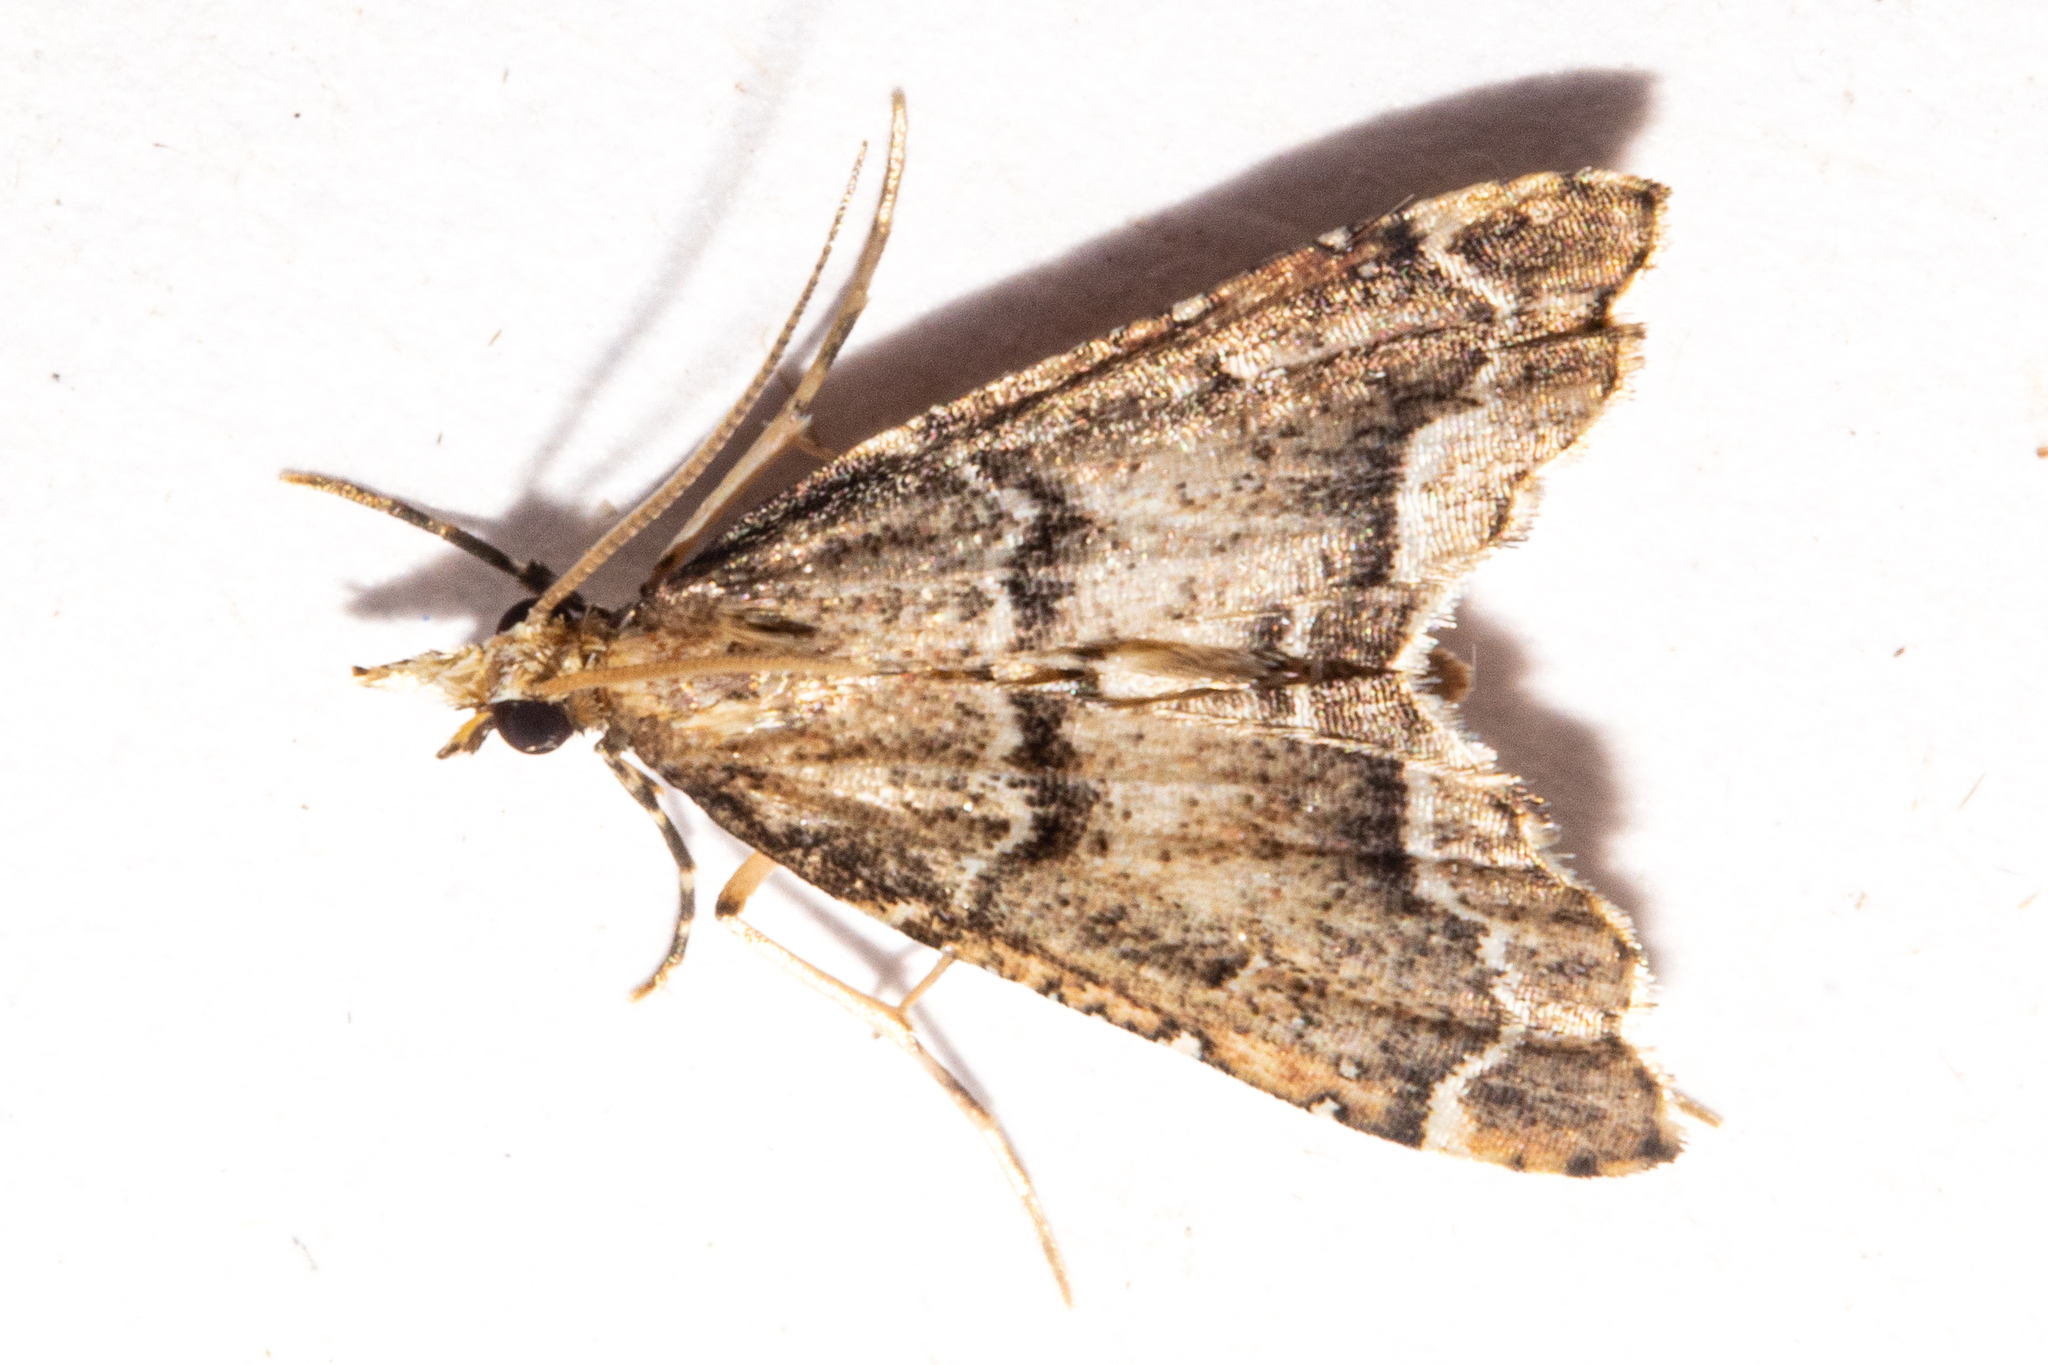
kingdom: Animalia
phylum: Arthropoda
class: Insecta
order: Lepidoptera
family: Crambidae
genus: Diplopseustis
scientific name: Diplopseustis perieresalis
